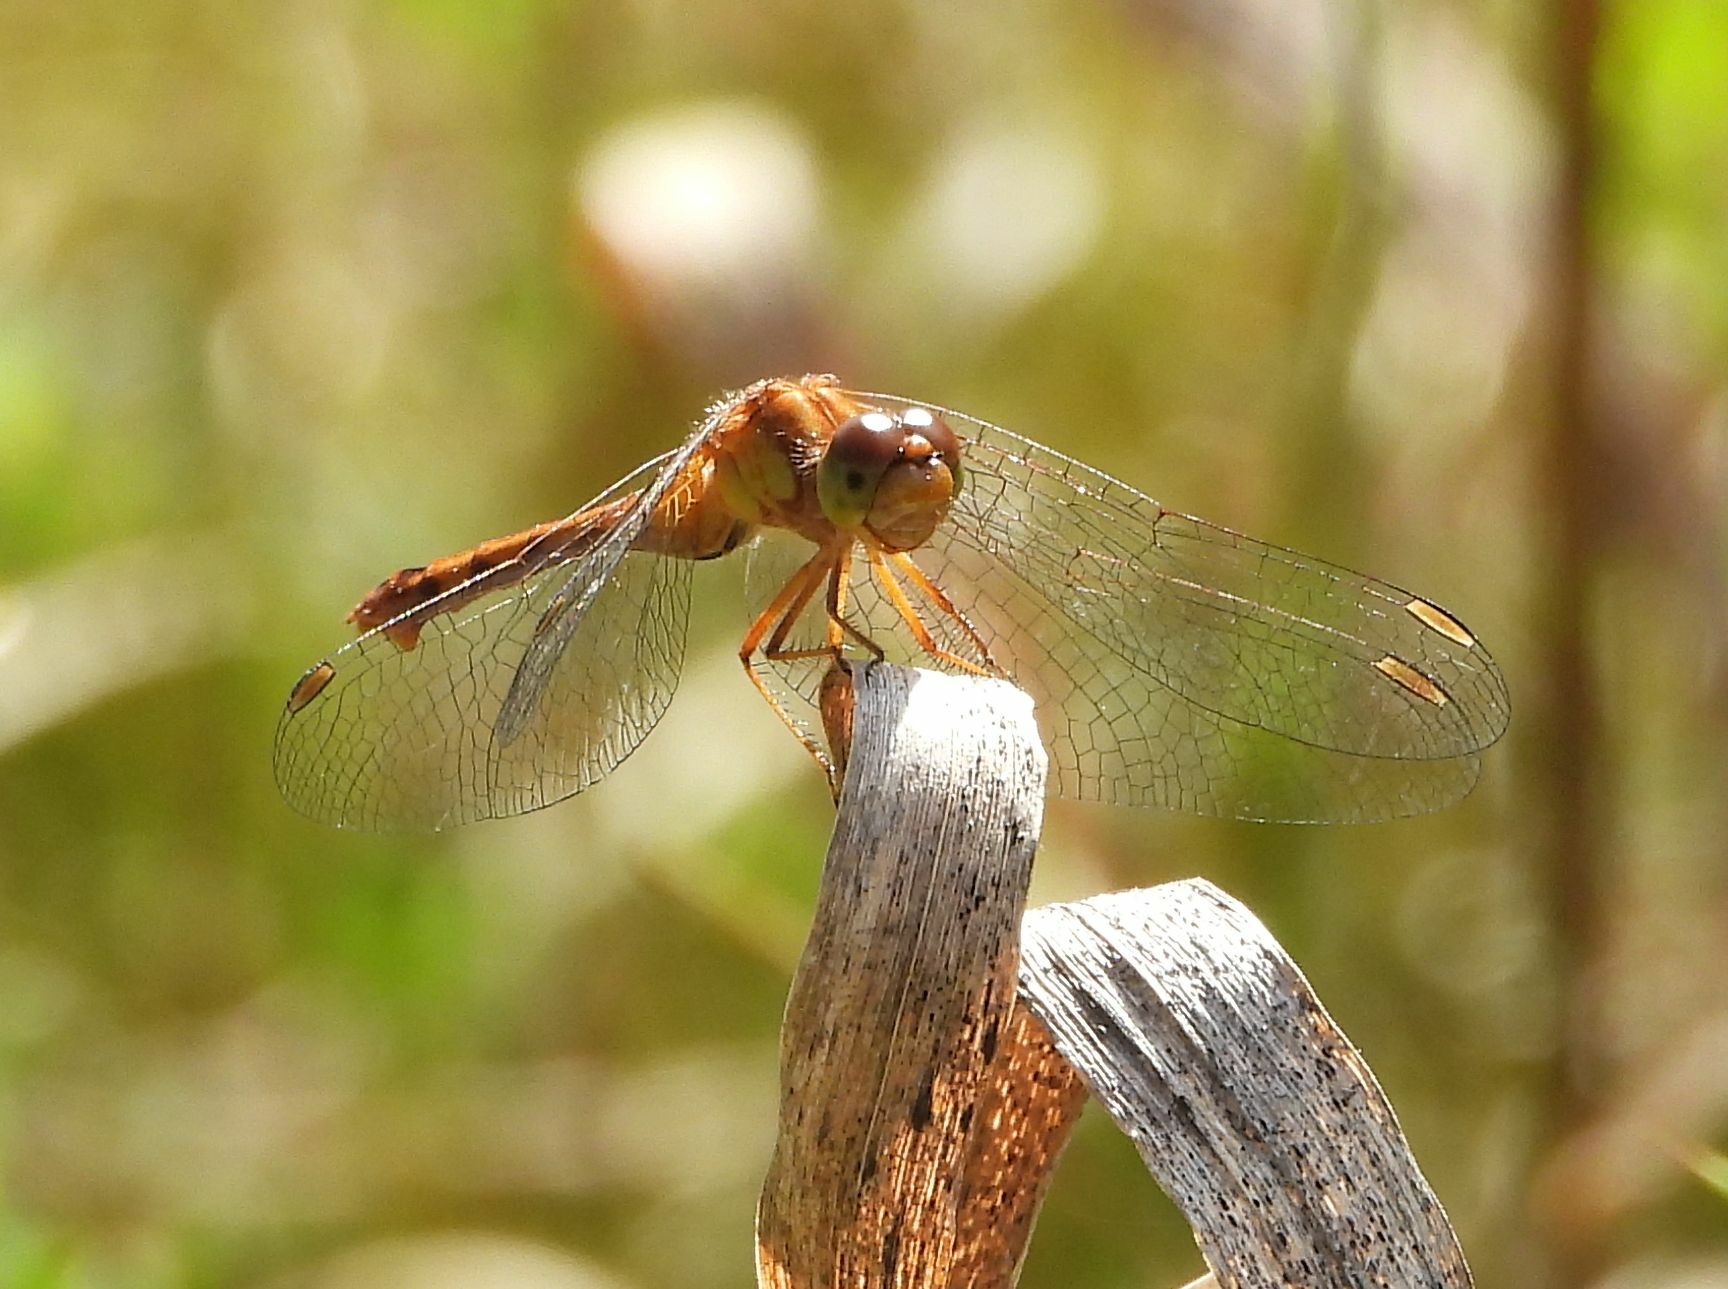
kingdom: Animalia
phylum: Arthropoda
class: Insecta
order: Odonata
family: Libellulidae
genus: Sympetrum
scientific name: Sympetrum vicinum
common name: Autumn meadowhawk
